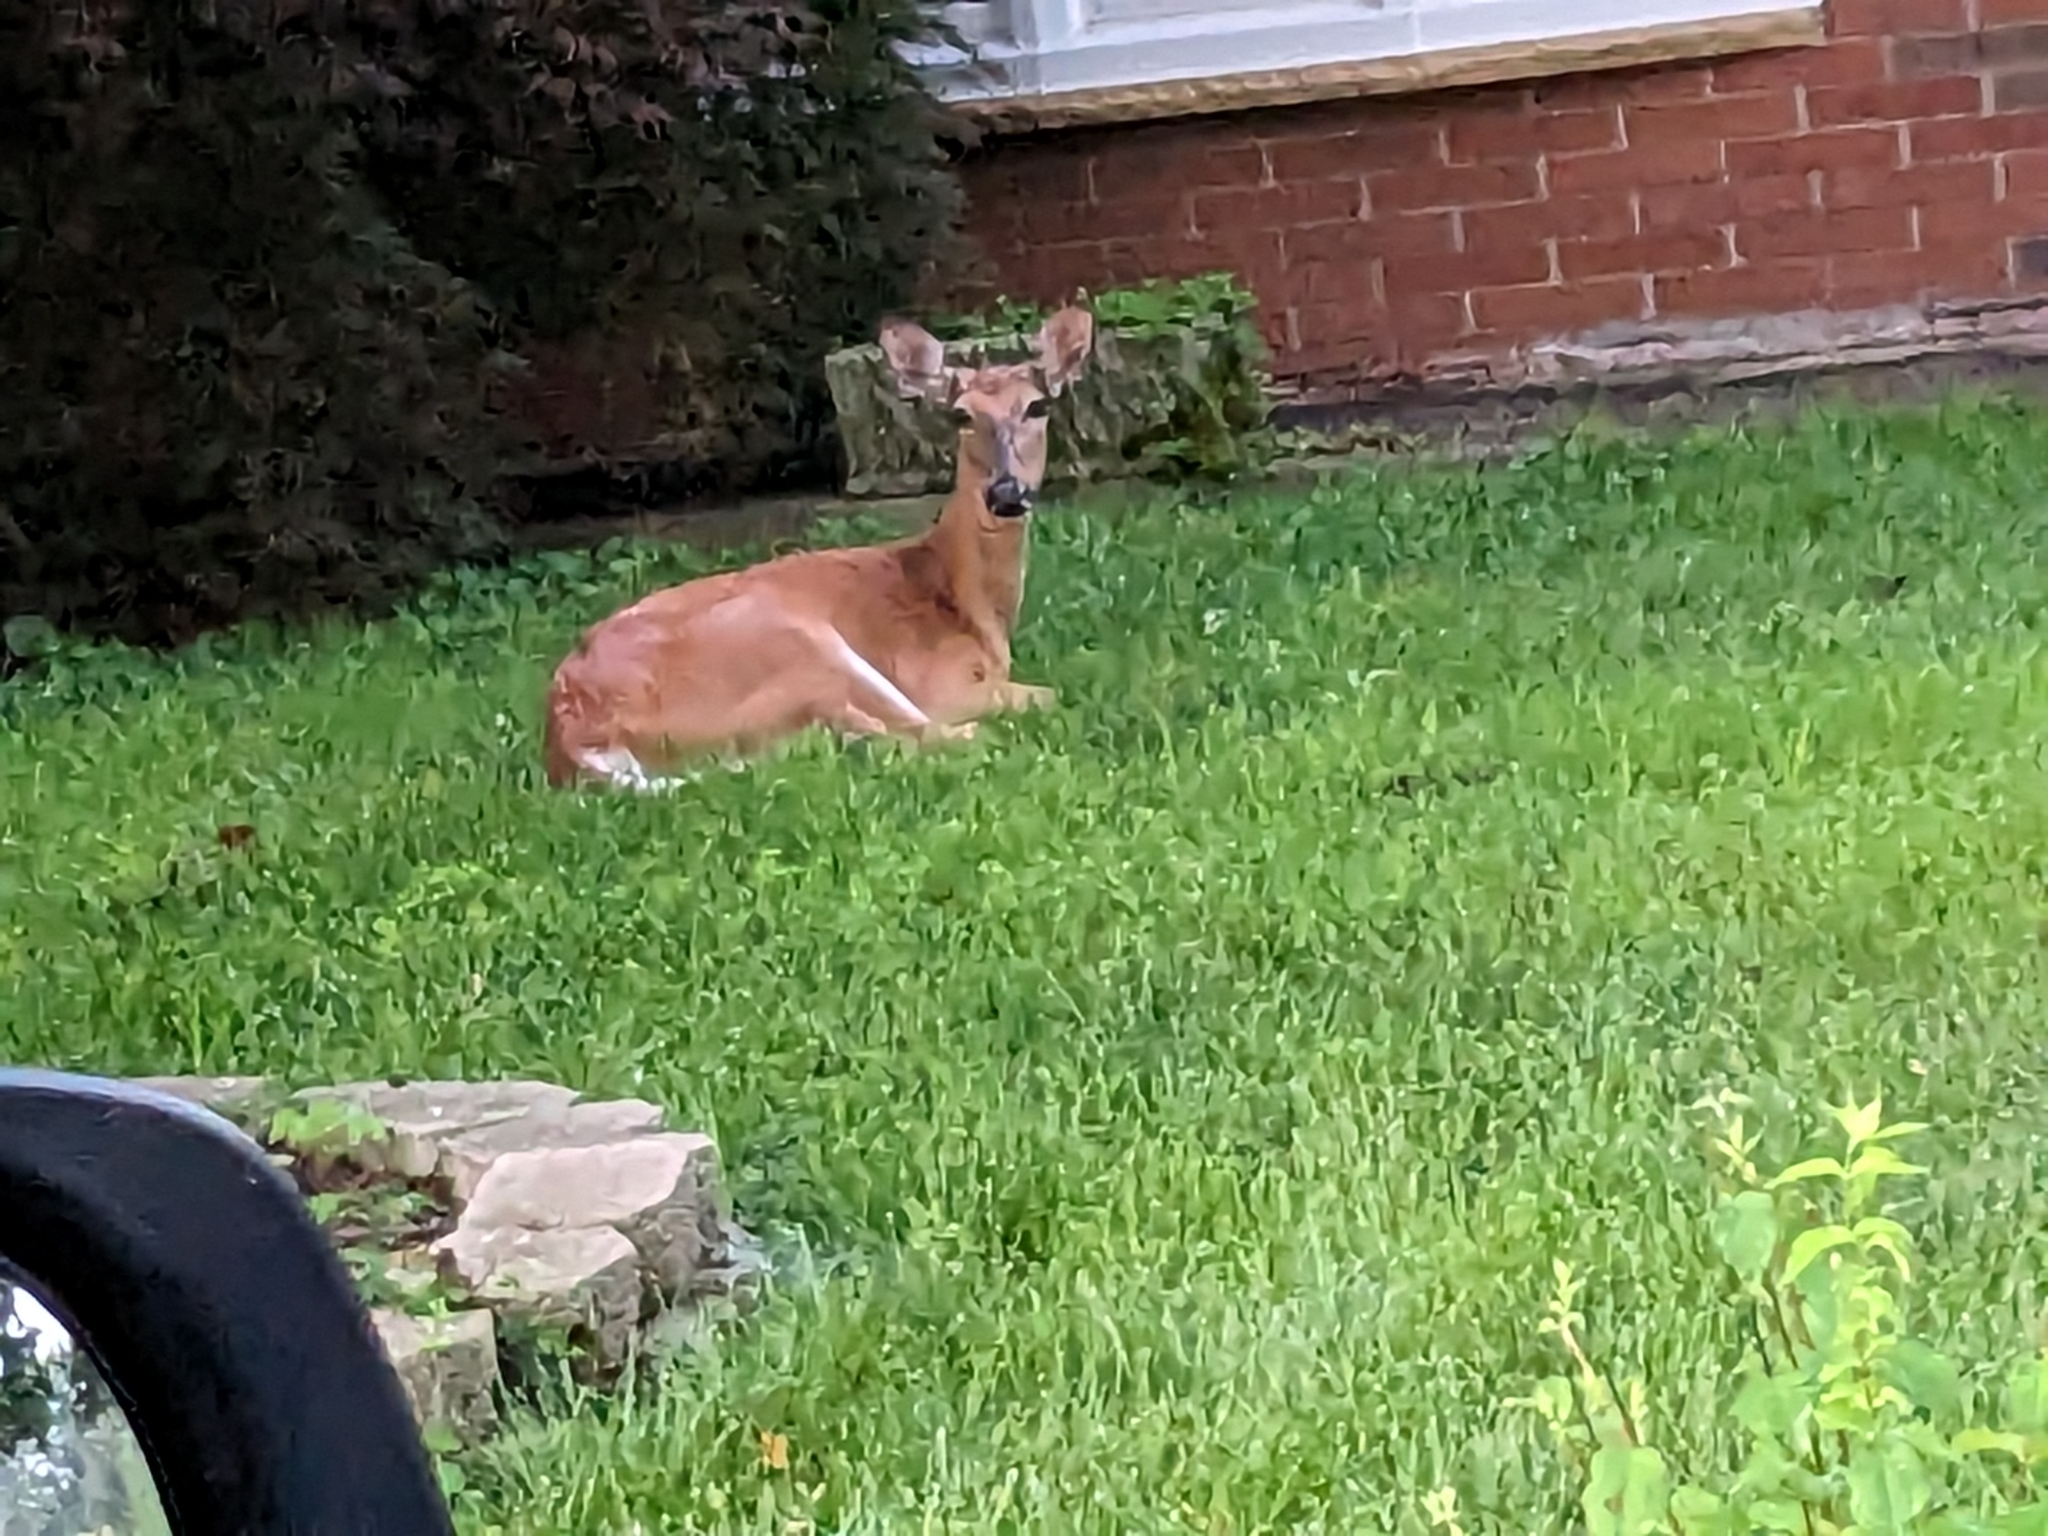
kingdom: Animalia
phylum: Chordata
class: Mammalia
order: Artiodactyla
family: Cervidae
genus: Odocoileus
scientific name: Odocoileus virginianus
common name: White-tailed deer
